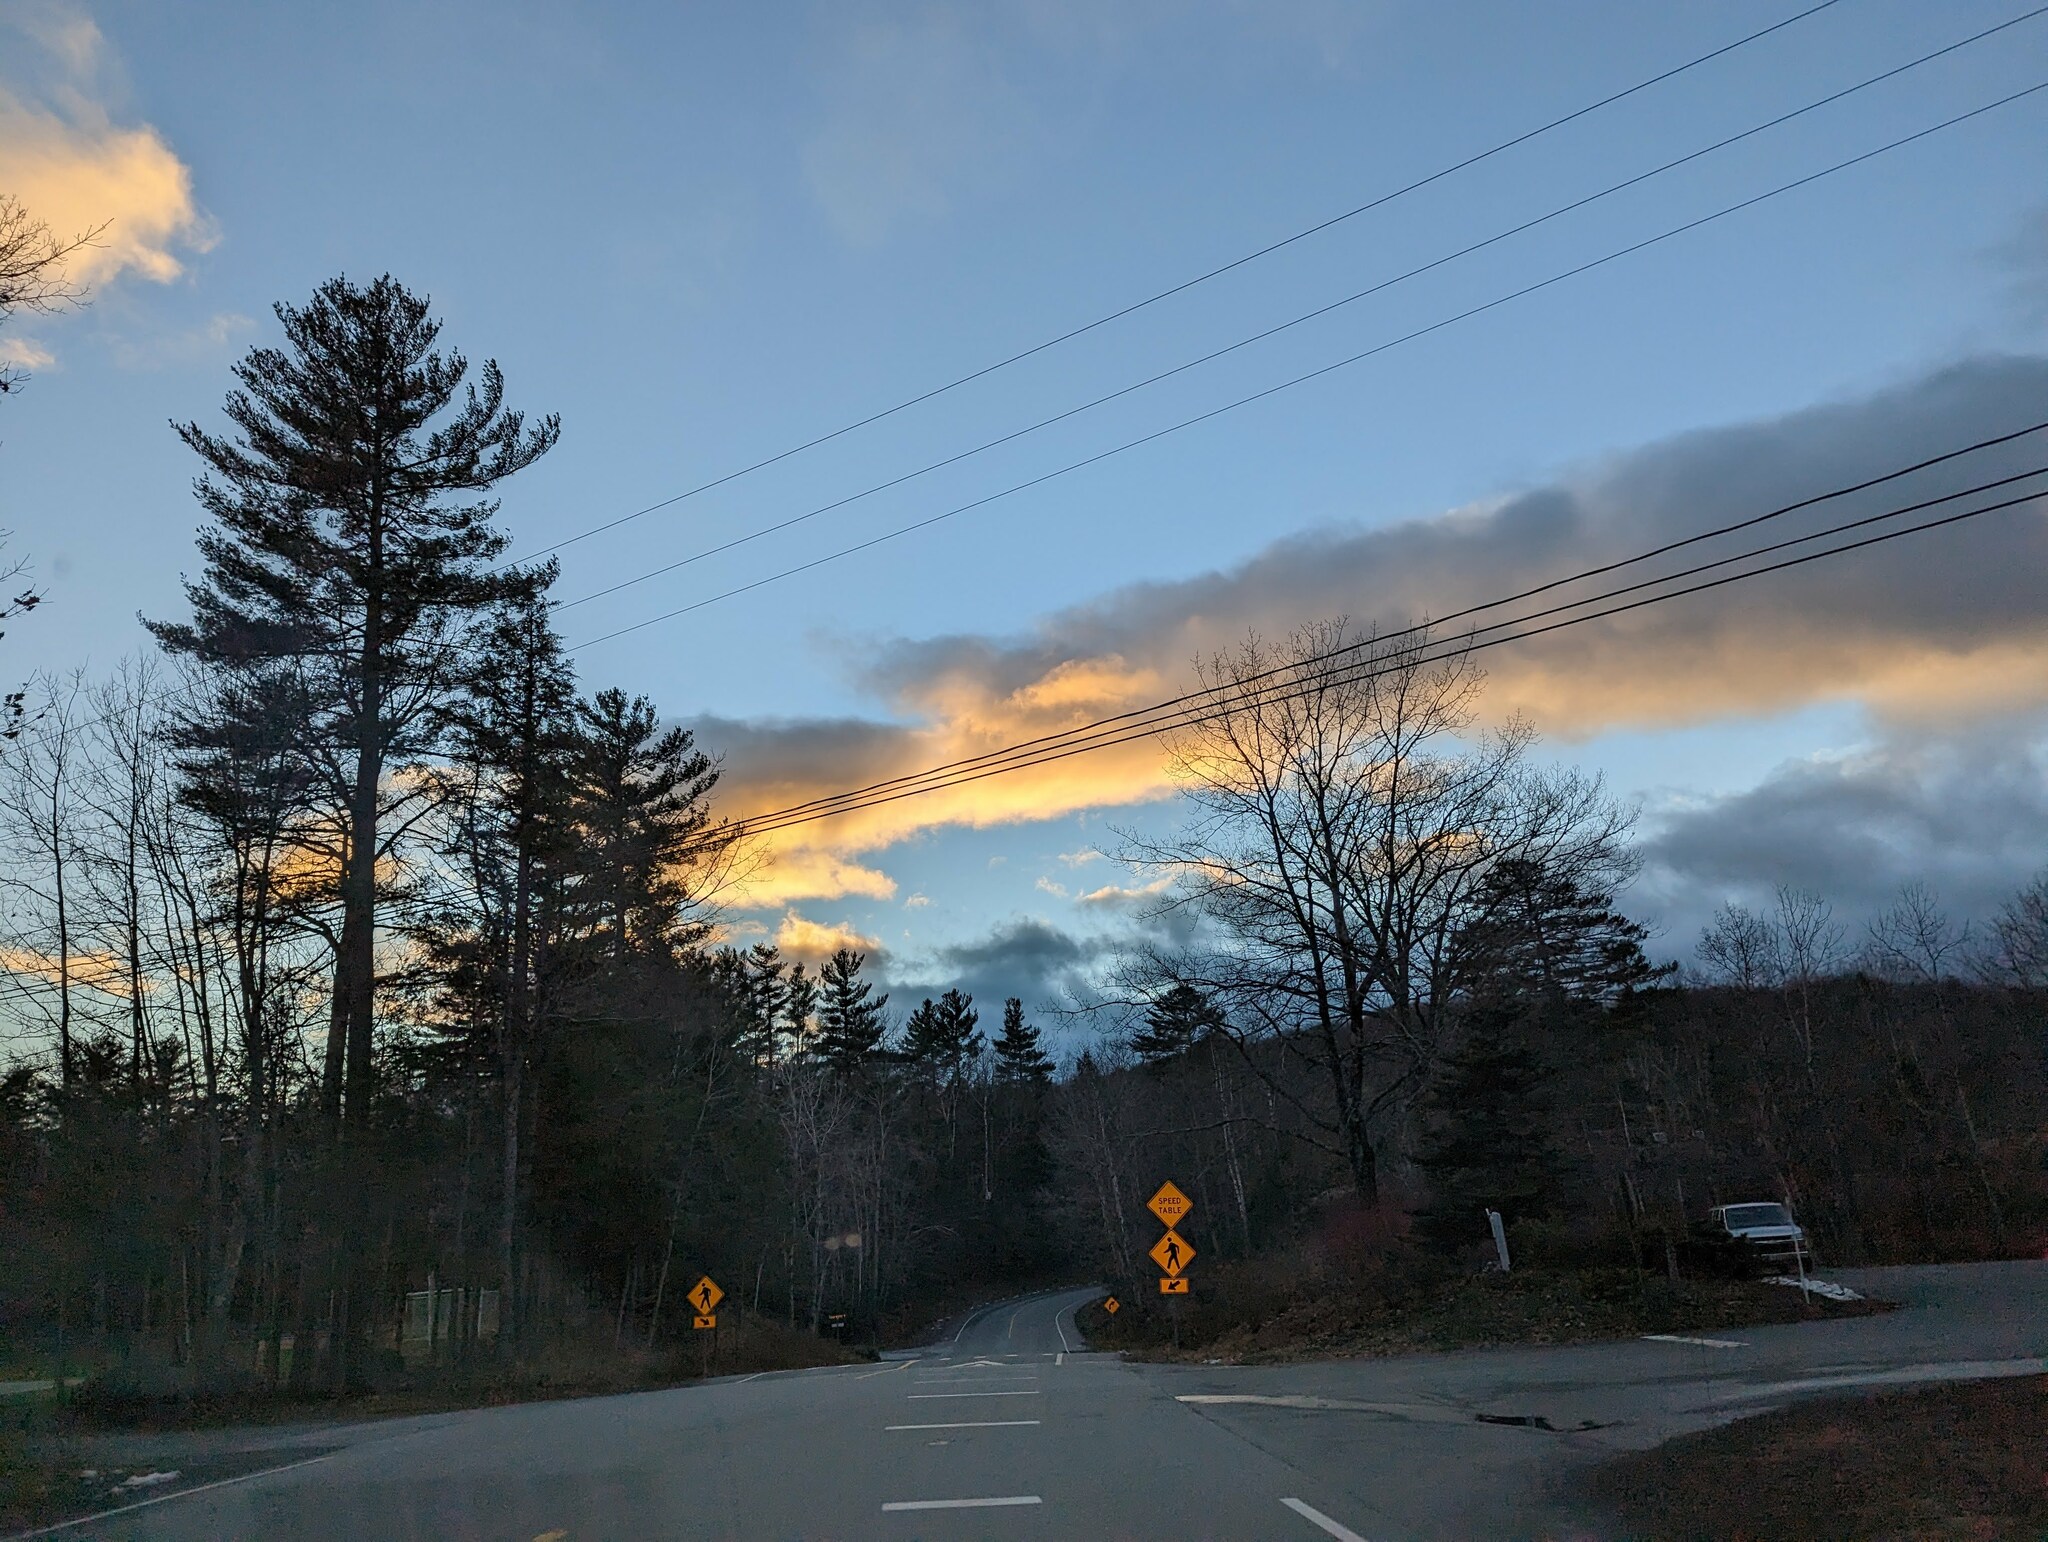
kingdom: Plantae
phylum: Tracheophyta
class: Pinopsida
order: Pinales
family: Pinaceae
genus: Pinus
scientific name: Pinus strobus
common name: Weymouth pine
